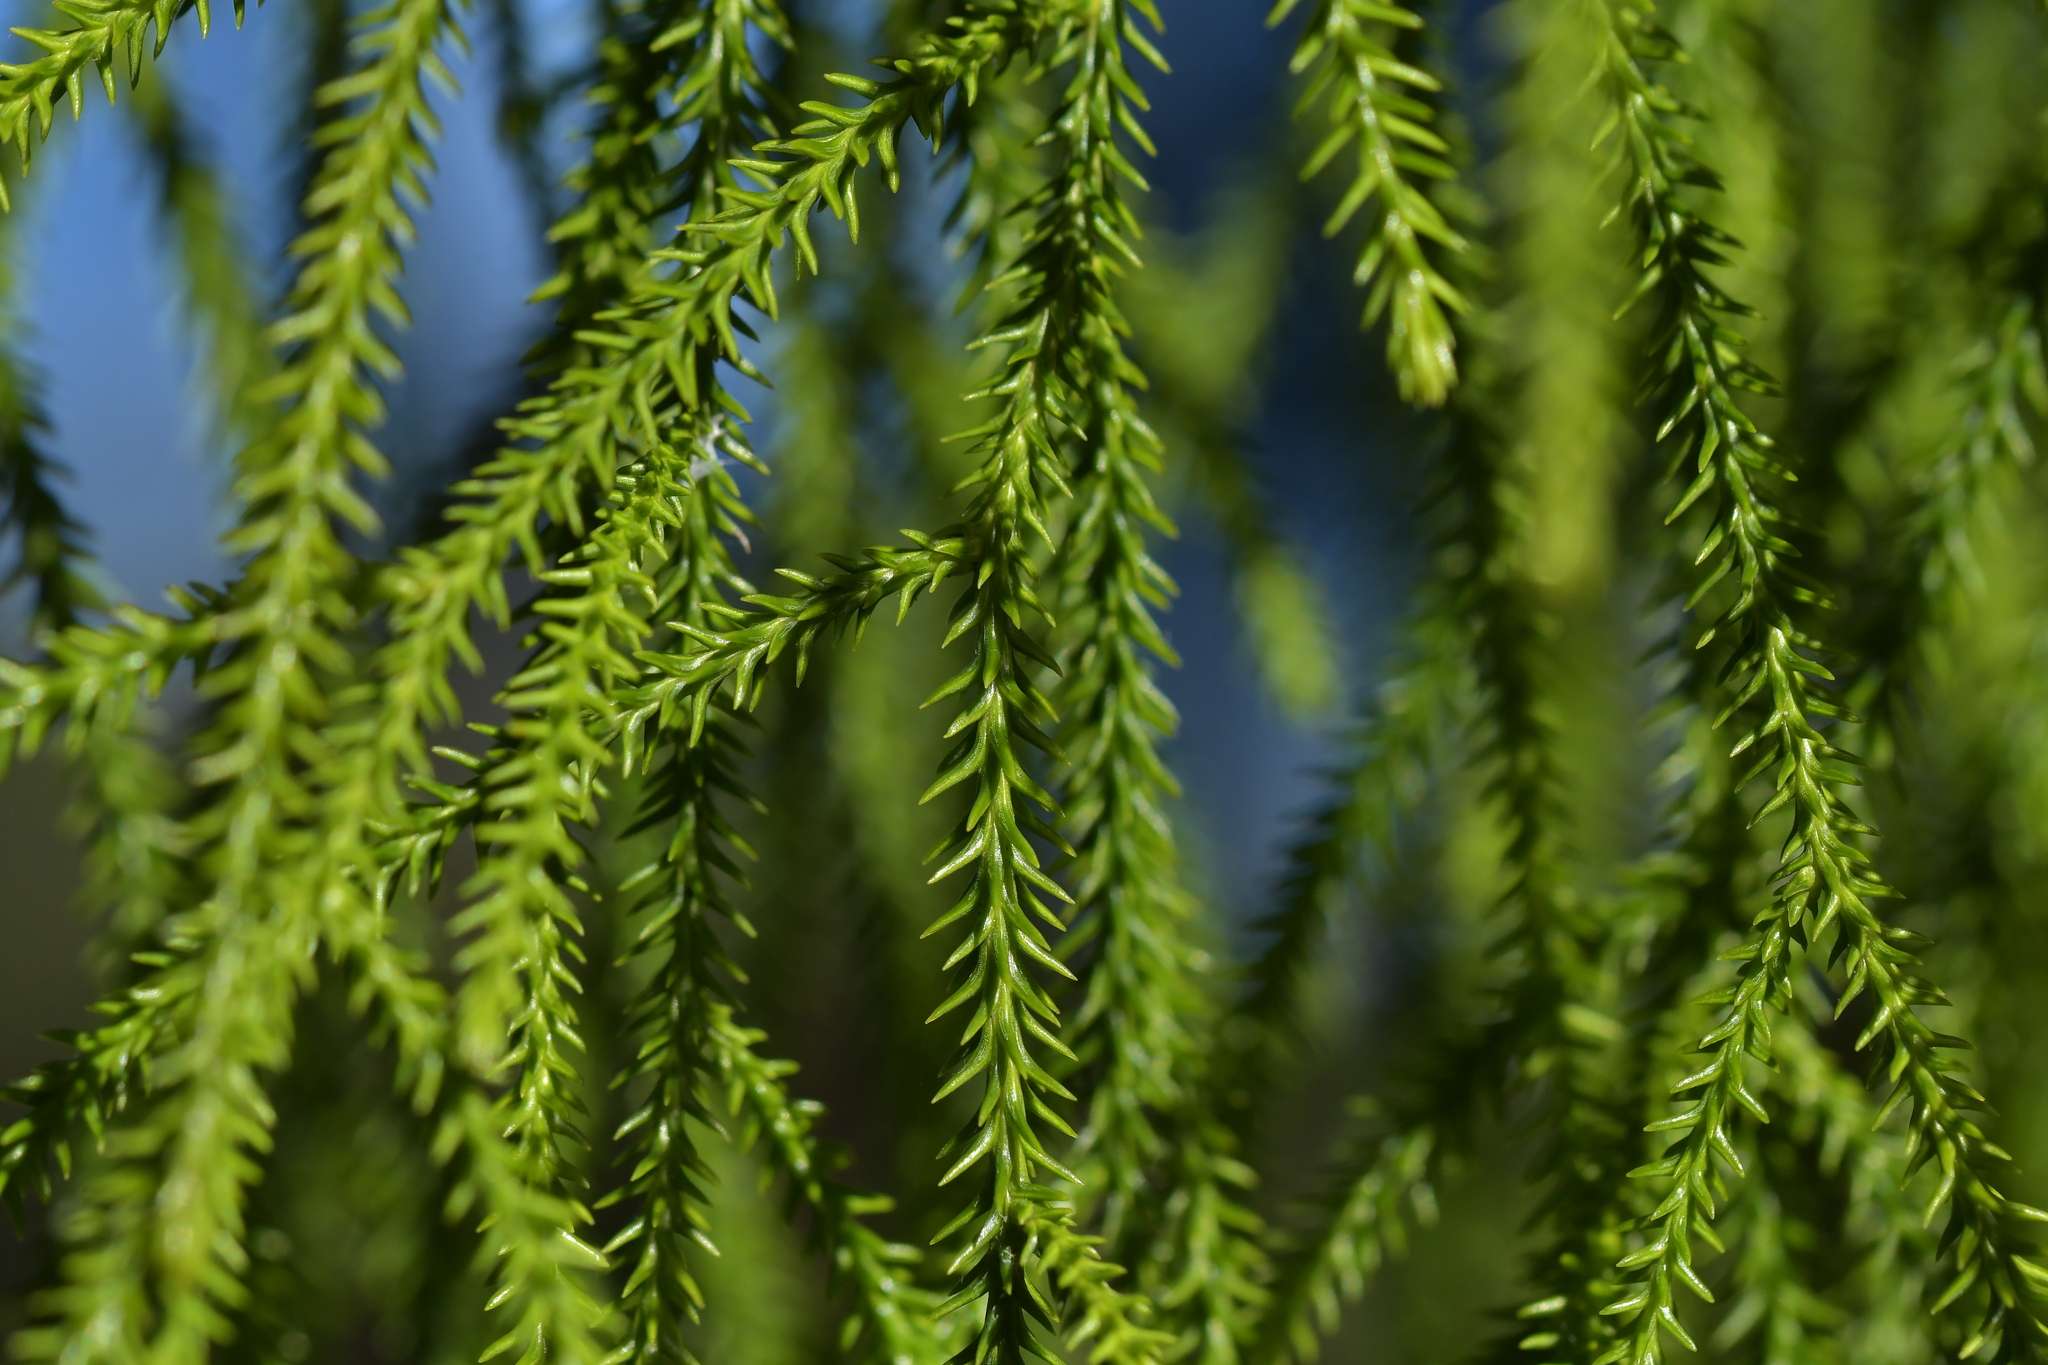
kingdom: Plantae
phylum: Tracheophyta
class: Pinopsida
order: Pinales
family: Podocarpaceae
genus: Dacrydium
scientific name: Dacrydium cupressinum
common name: Red pine
